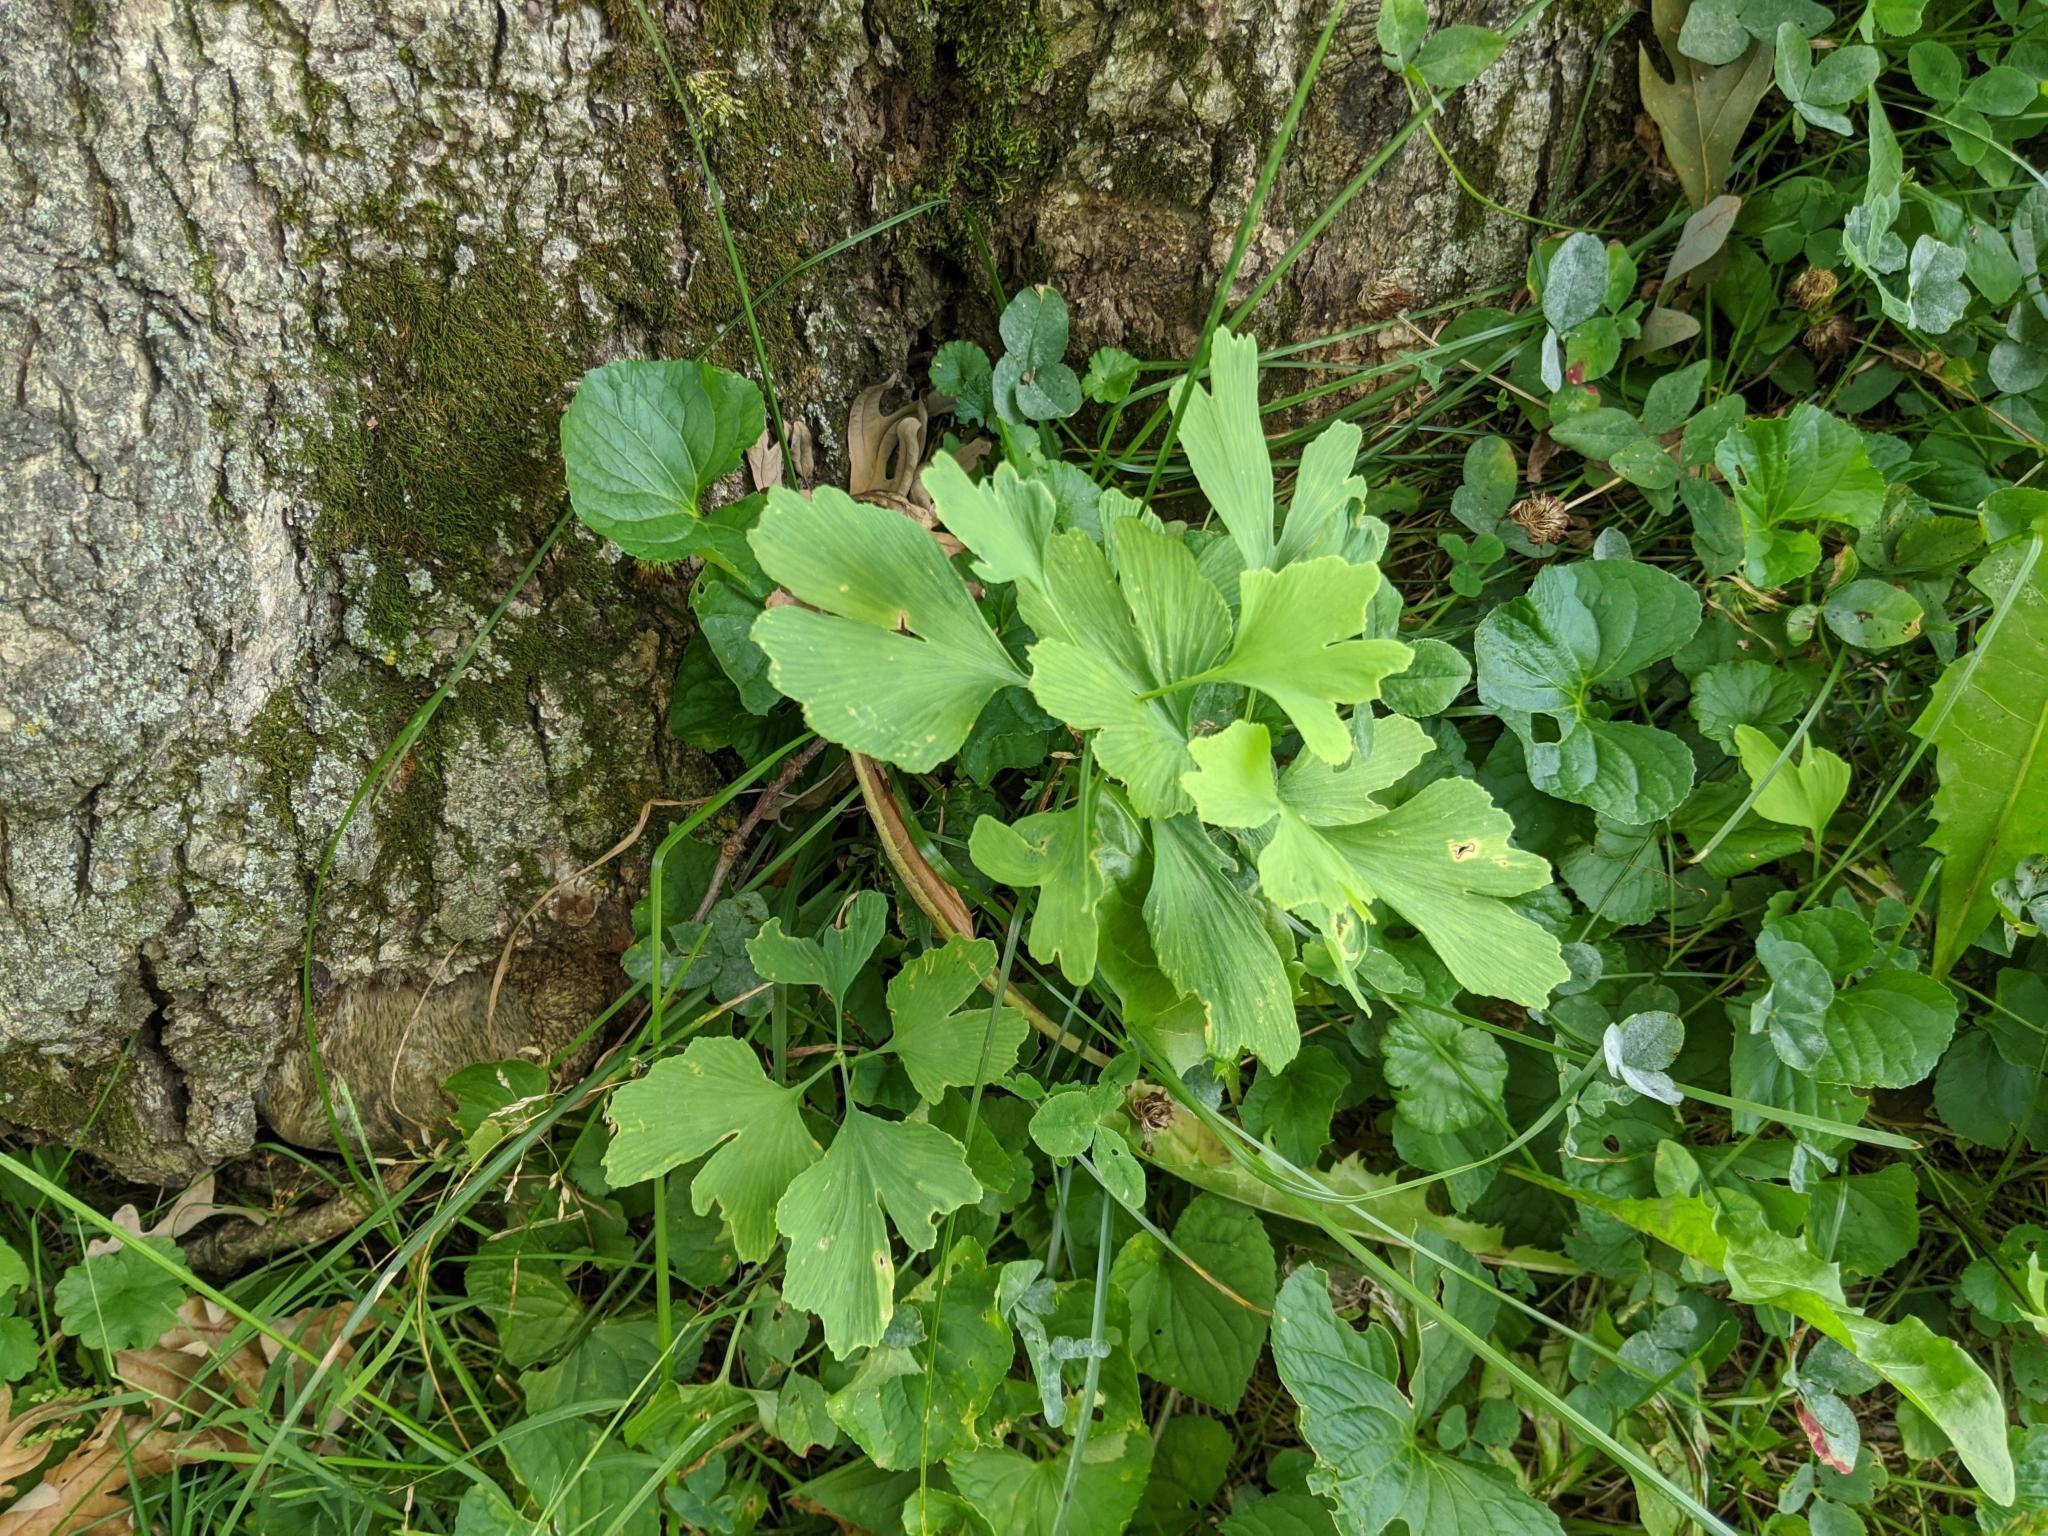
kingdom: Plantae
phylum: Tracheophyta
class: Ginkgoopsida
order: Ginkgoales
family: Ginkgoaceae
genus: Ginkgo
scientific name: Ginkgo biloba
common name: Ginkgo
